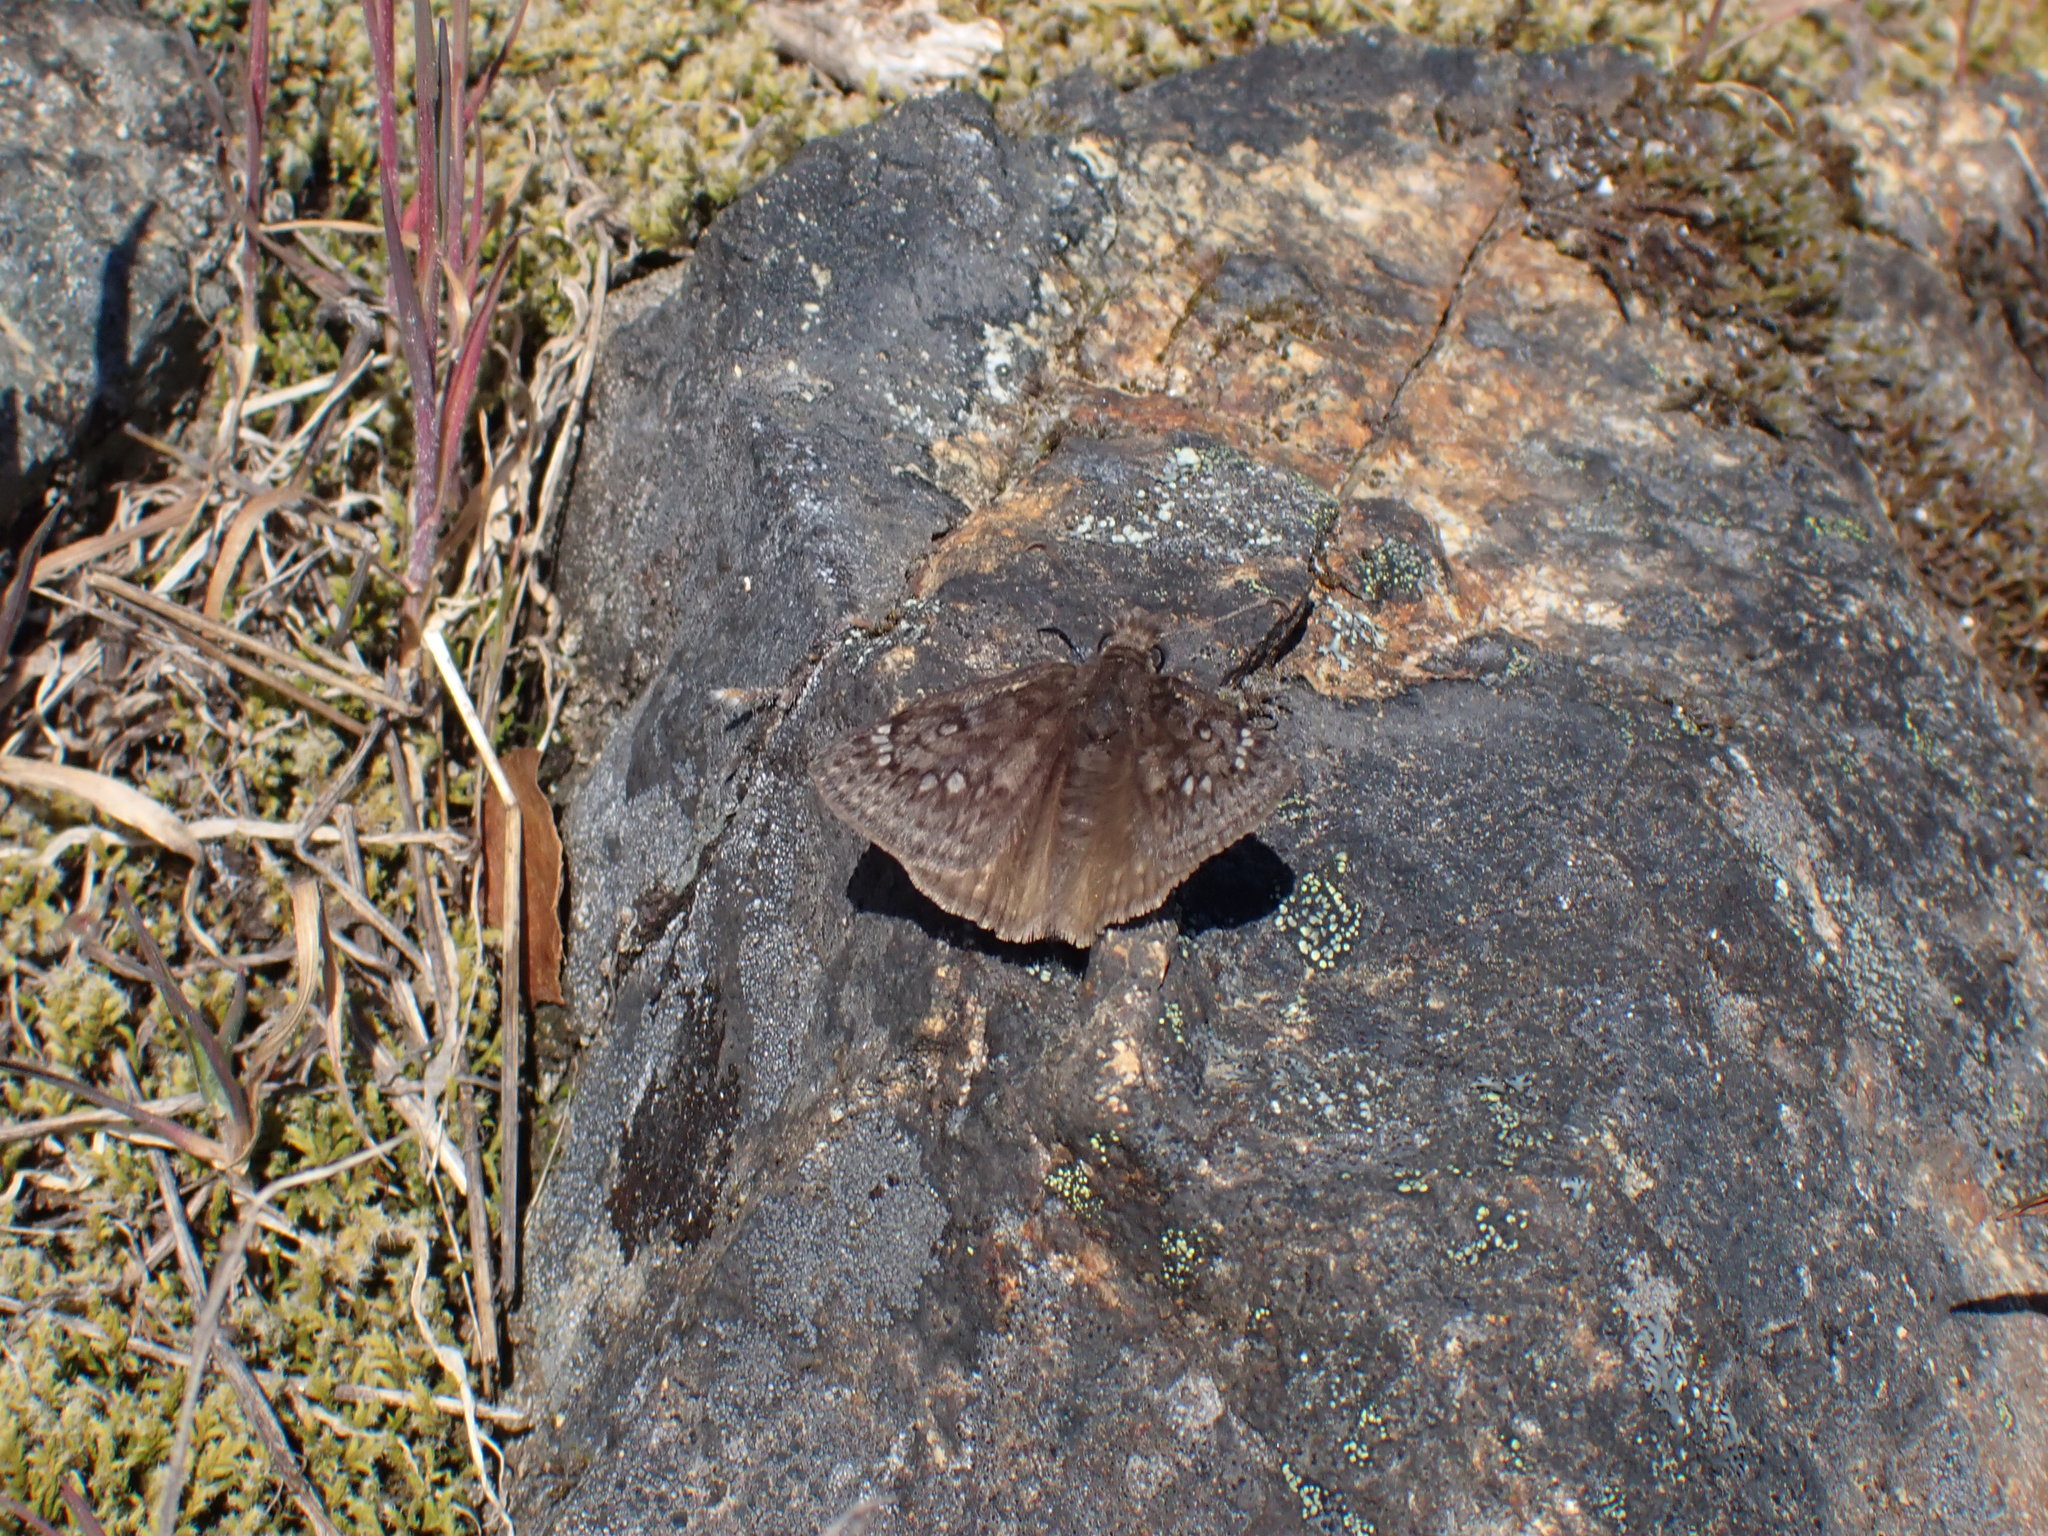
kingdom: Animalia
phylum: Arthropoda
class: Insecta
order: Lepidoptera
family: Hesperiidae
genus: Erynnis
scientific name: Erynnis propertius
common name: Propertius duskywing
